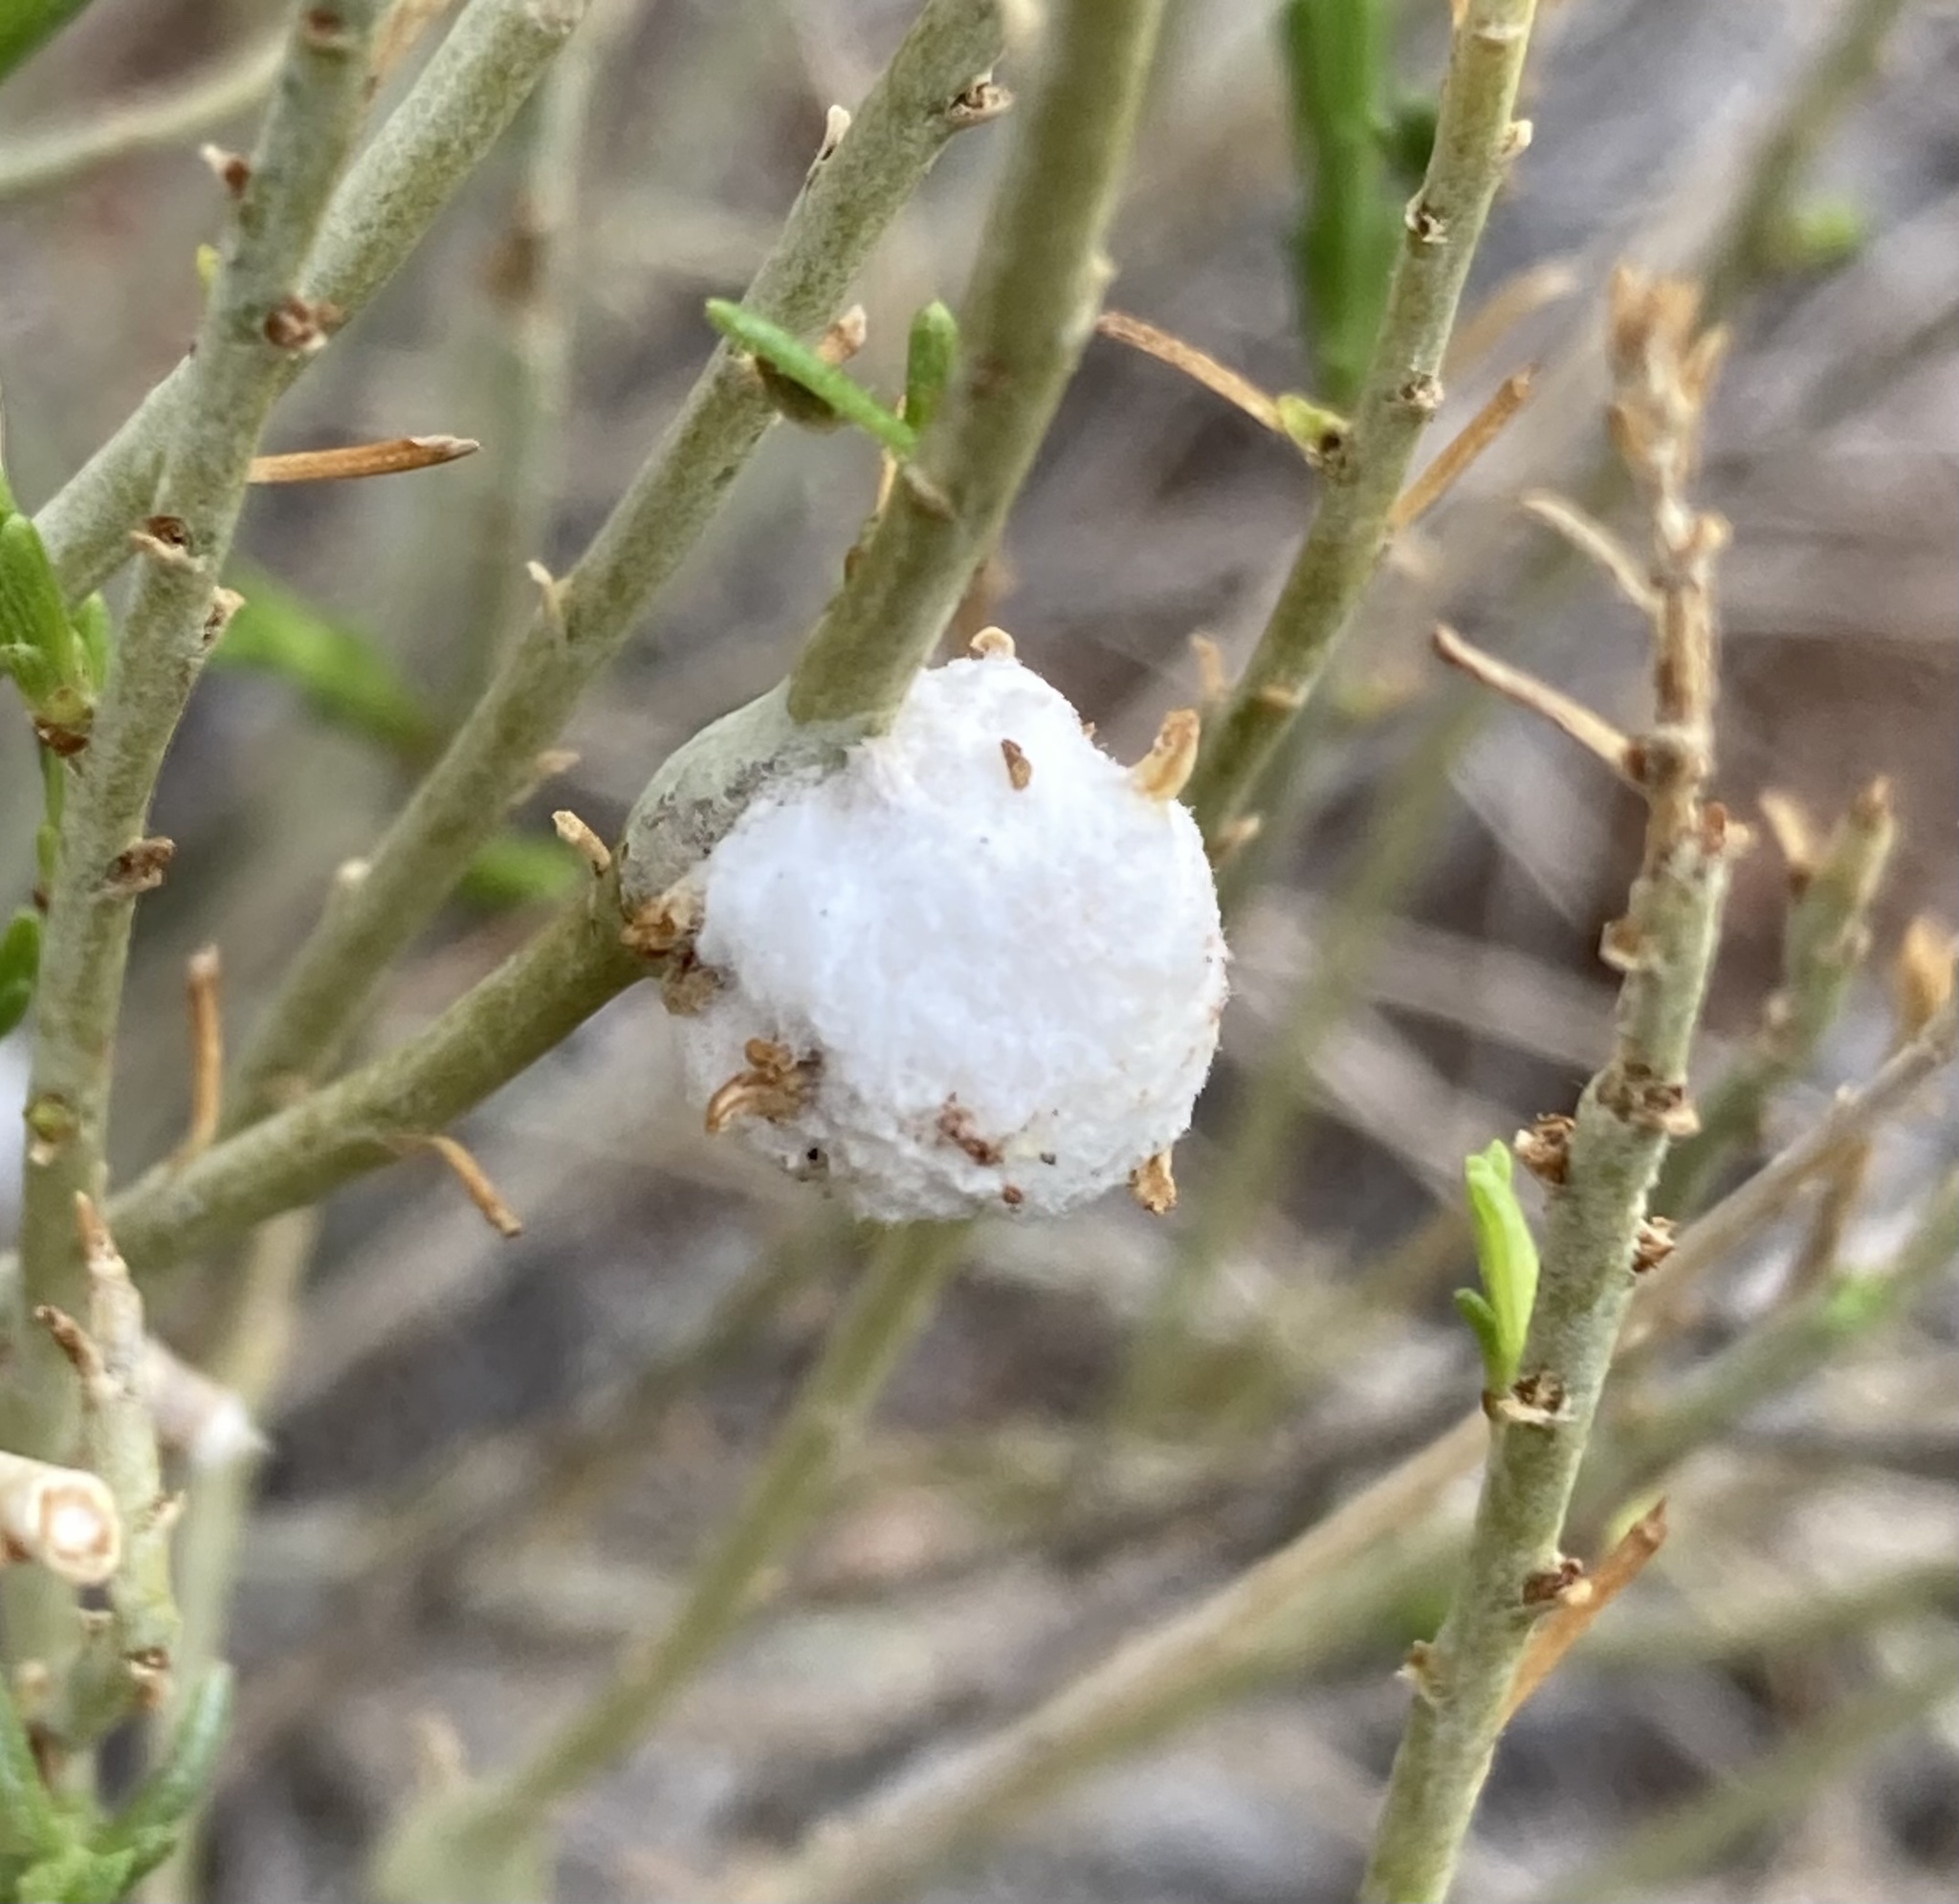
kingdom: Animalia
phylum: Arthropoda
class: Insecta
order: Diptera
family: Tephritidae
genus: Aciurina
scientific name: Aciurina bigeloviae
